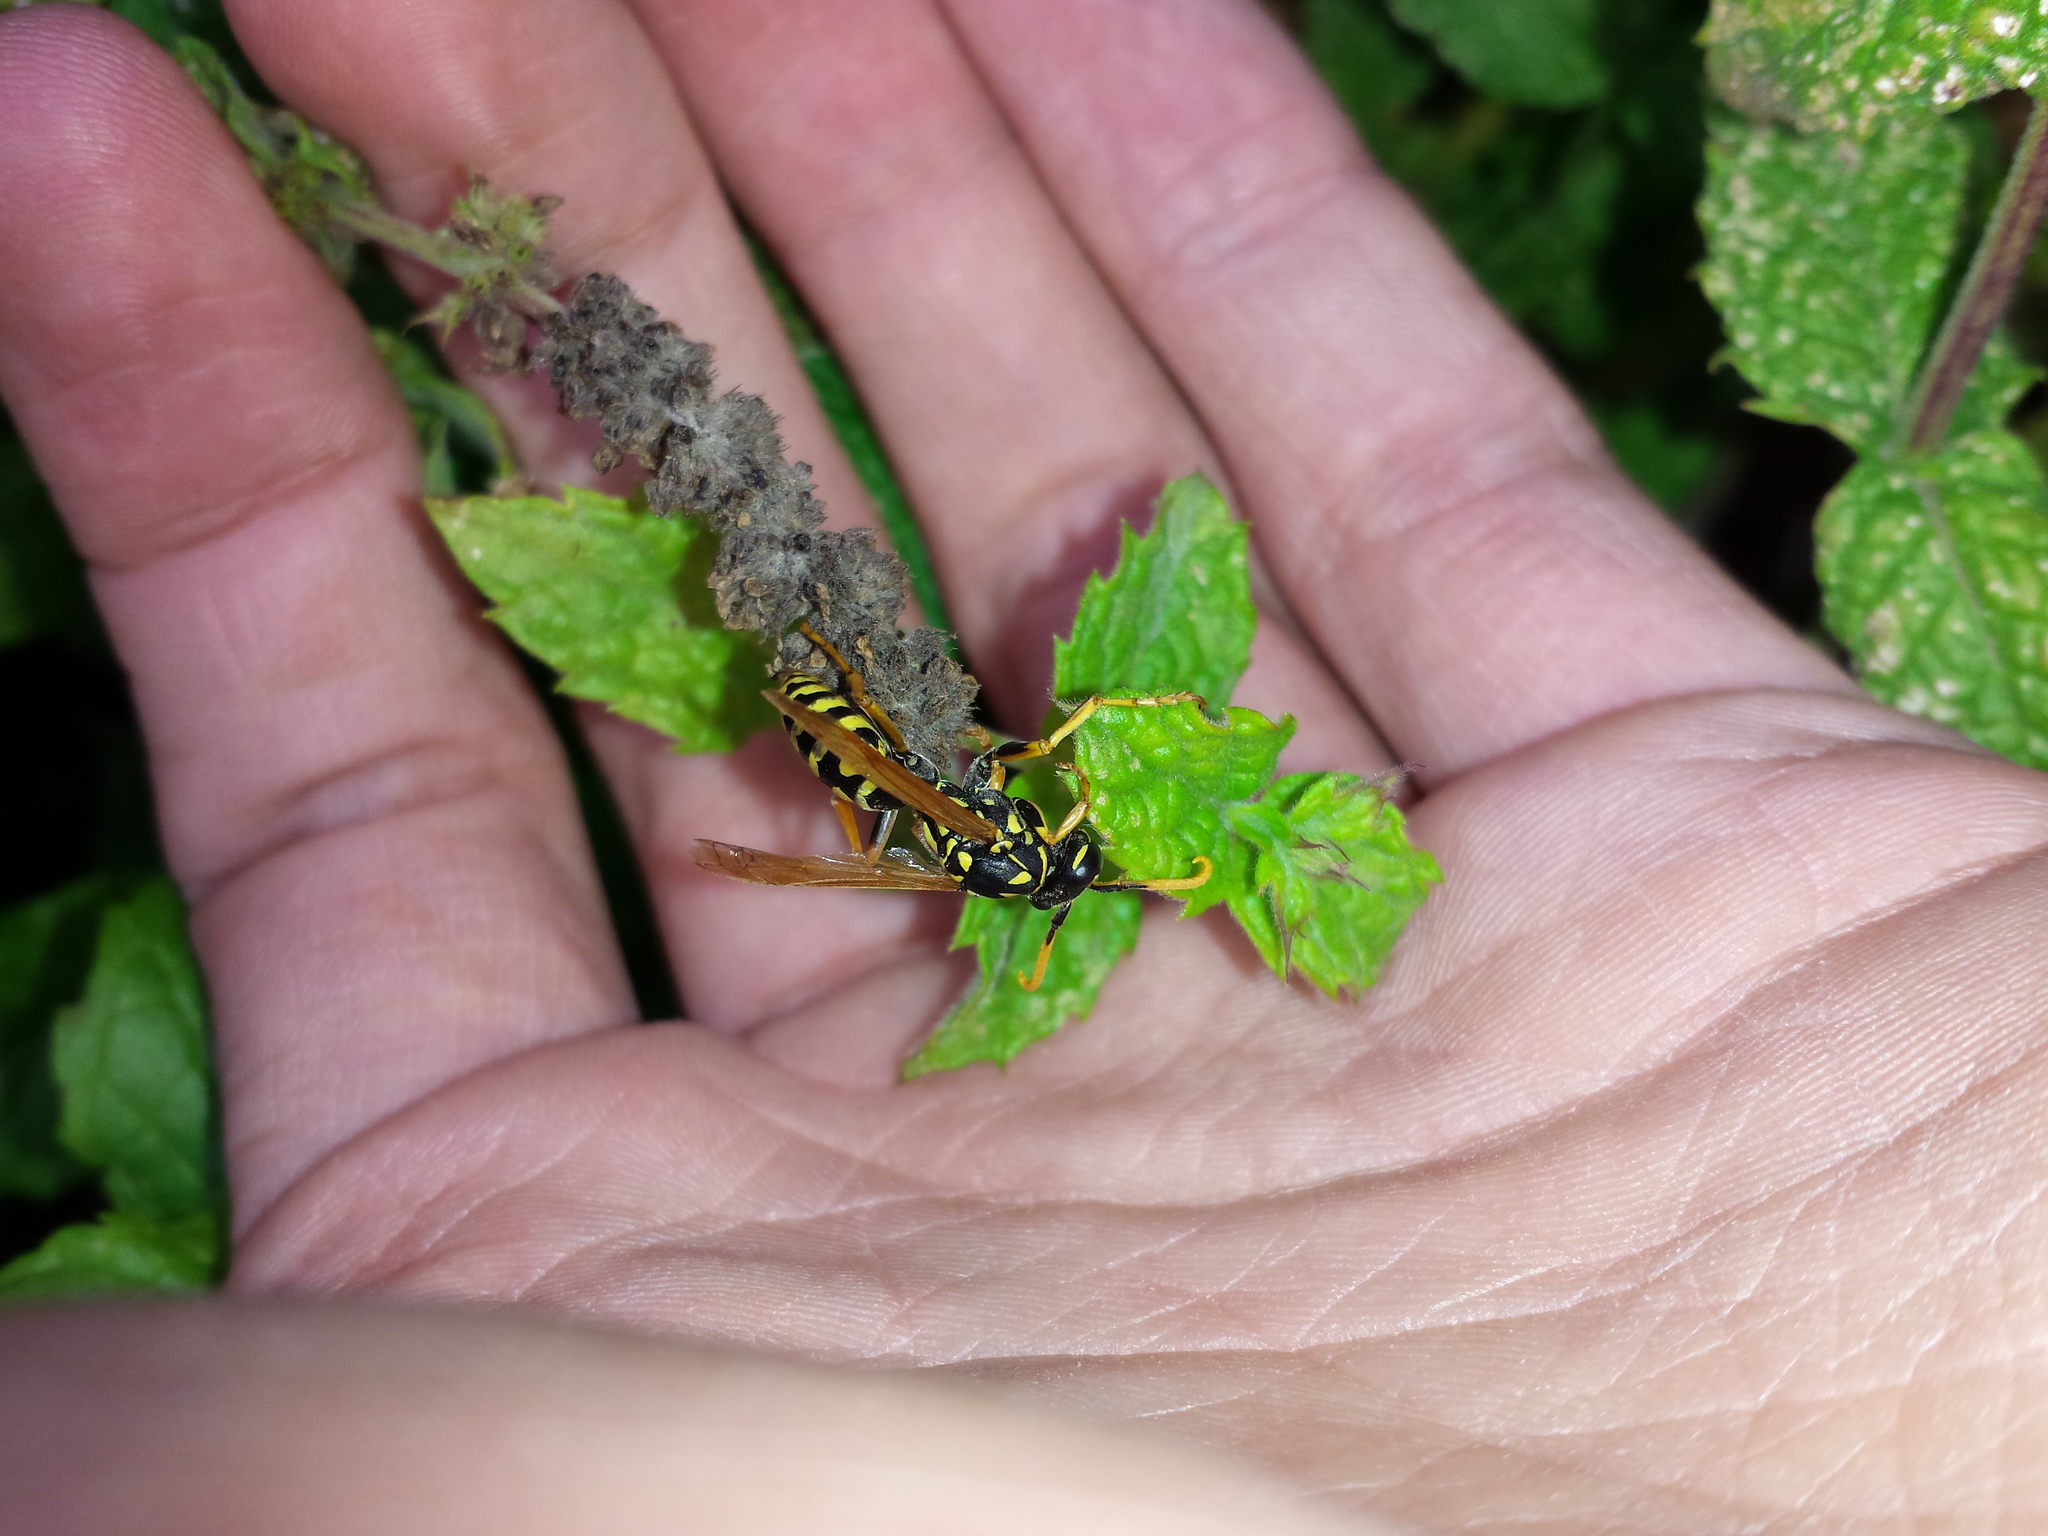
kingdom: Animalia
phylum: Arthropoda
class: Insecta
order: Hymenoptera
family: Eumenidae
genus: Polistes
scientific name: Polistes dominula
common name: Paper wasp
